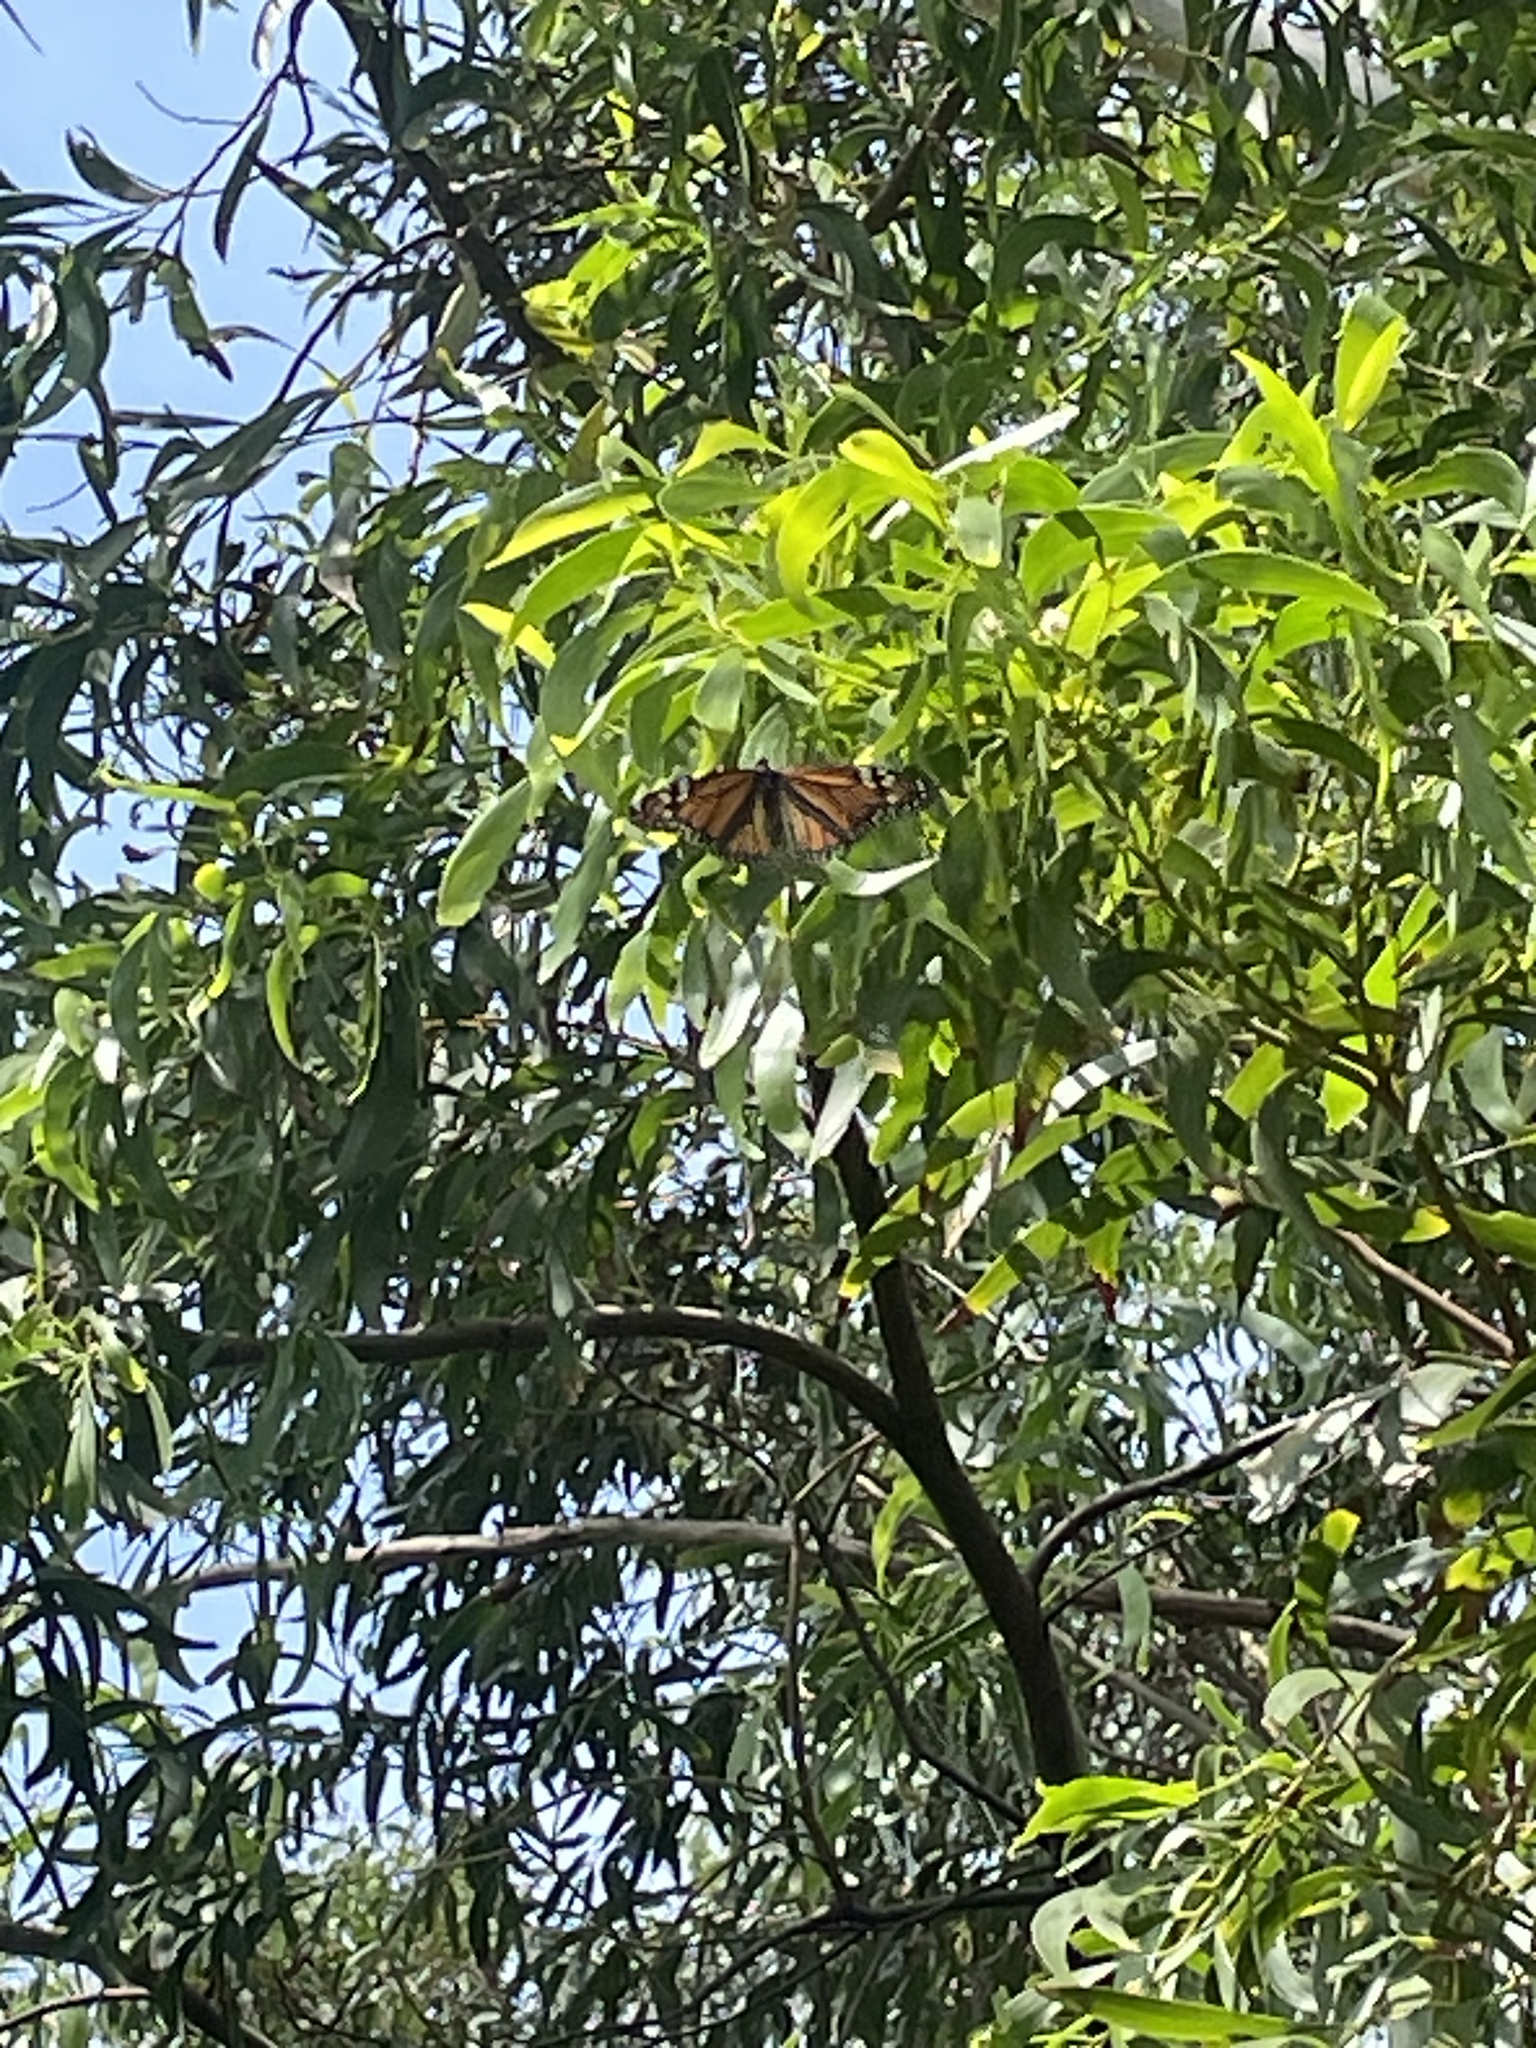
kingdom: Animalia
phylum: Arthropoda
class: Insecta
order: Lepidoptera
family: Nymphalidae
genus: Danaus
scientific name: Danaus plexippus
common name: Monarch
